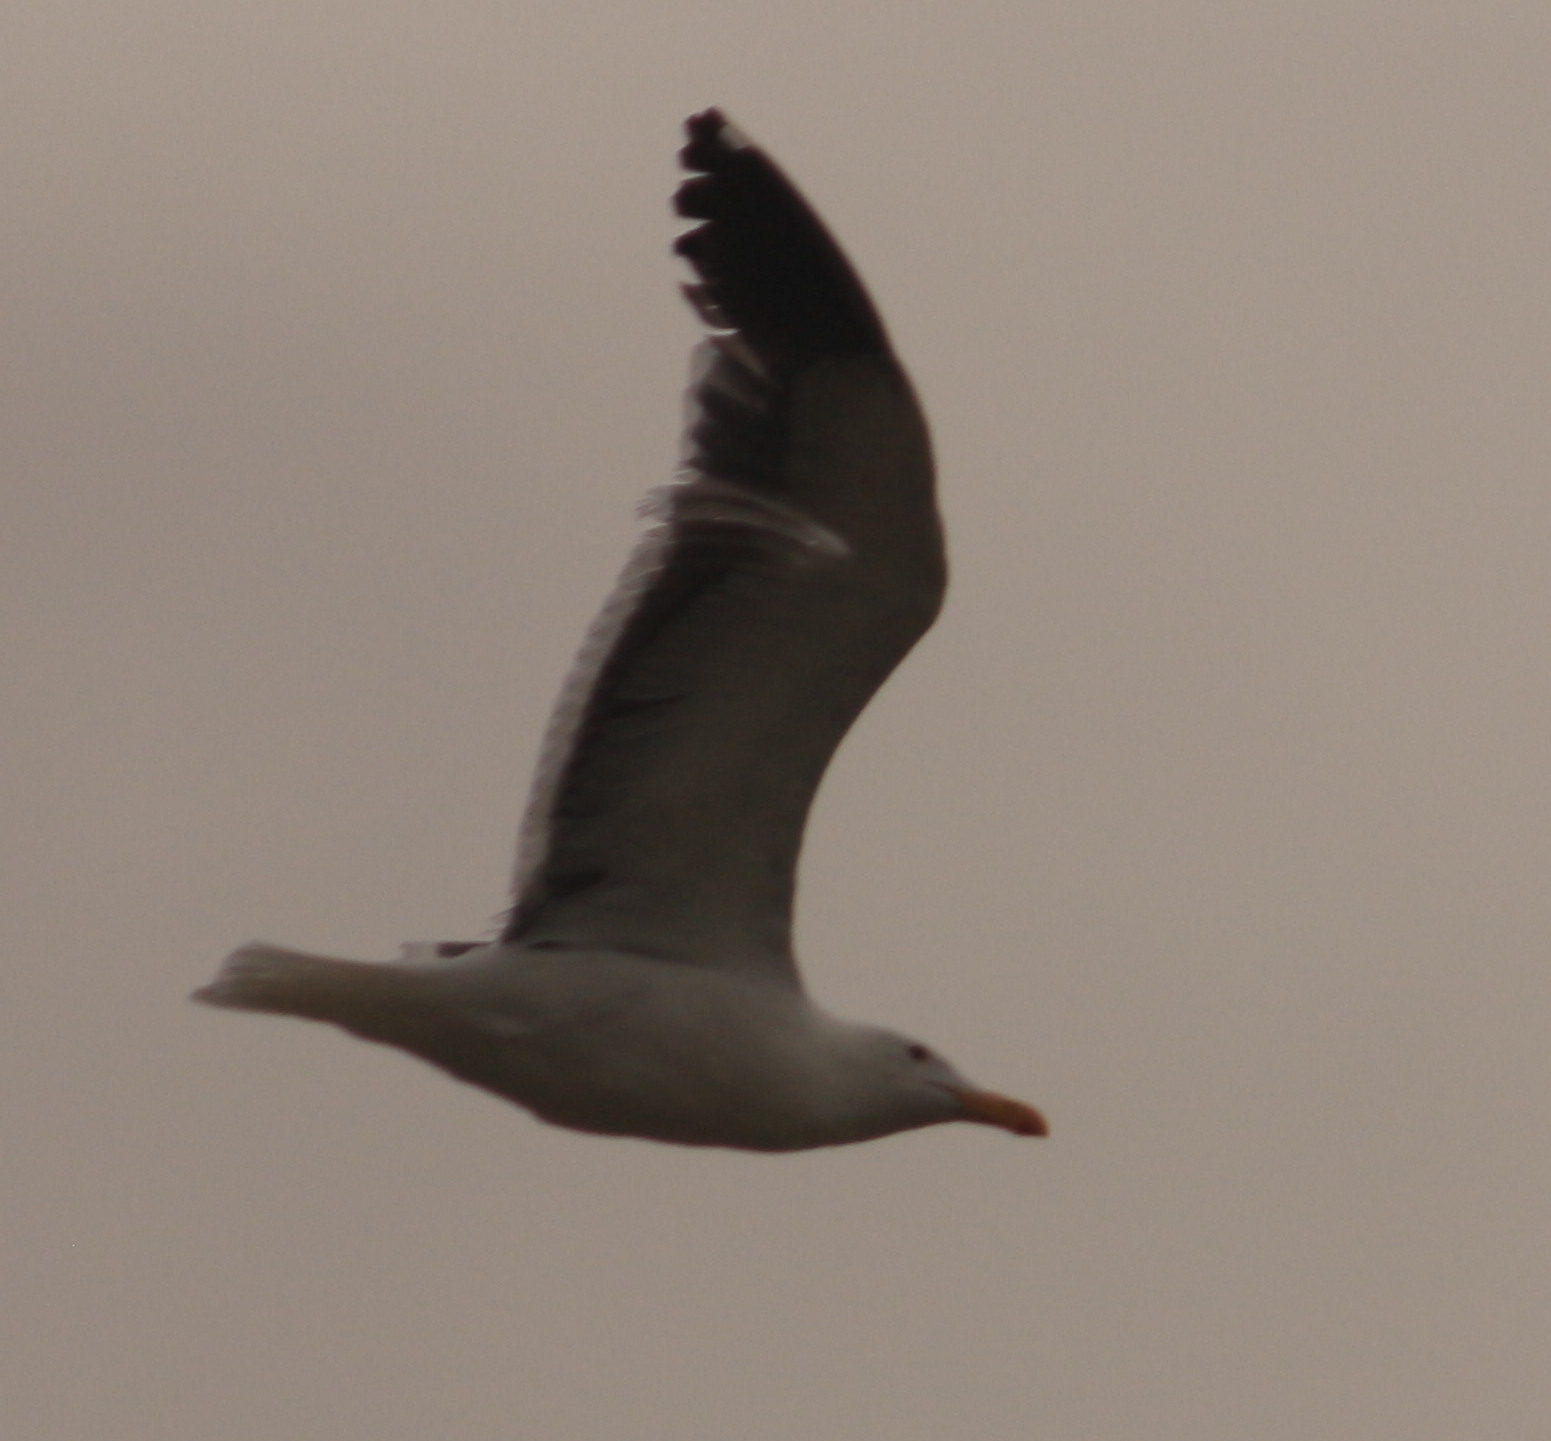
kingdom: Animalia
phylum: Chordata
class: Aves
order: Charadriiformes
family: Laridae
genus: Larus
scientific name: Larus occidentalis
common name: Western gull
